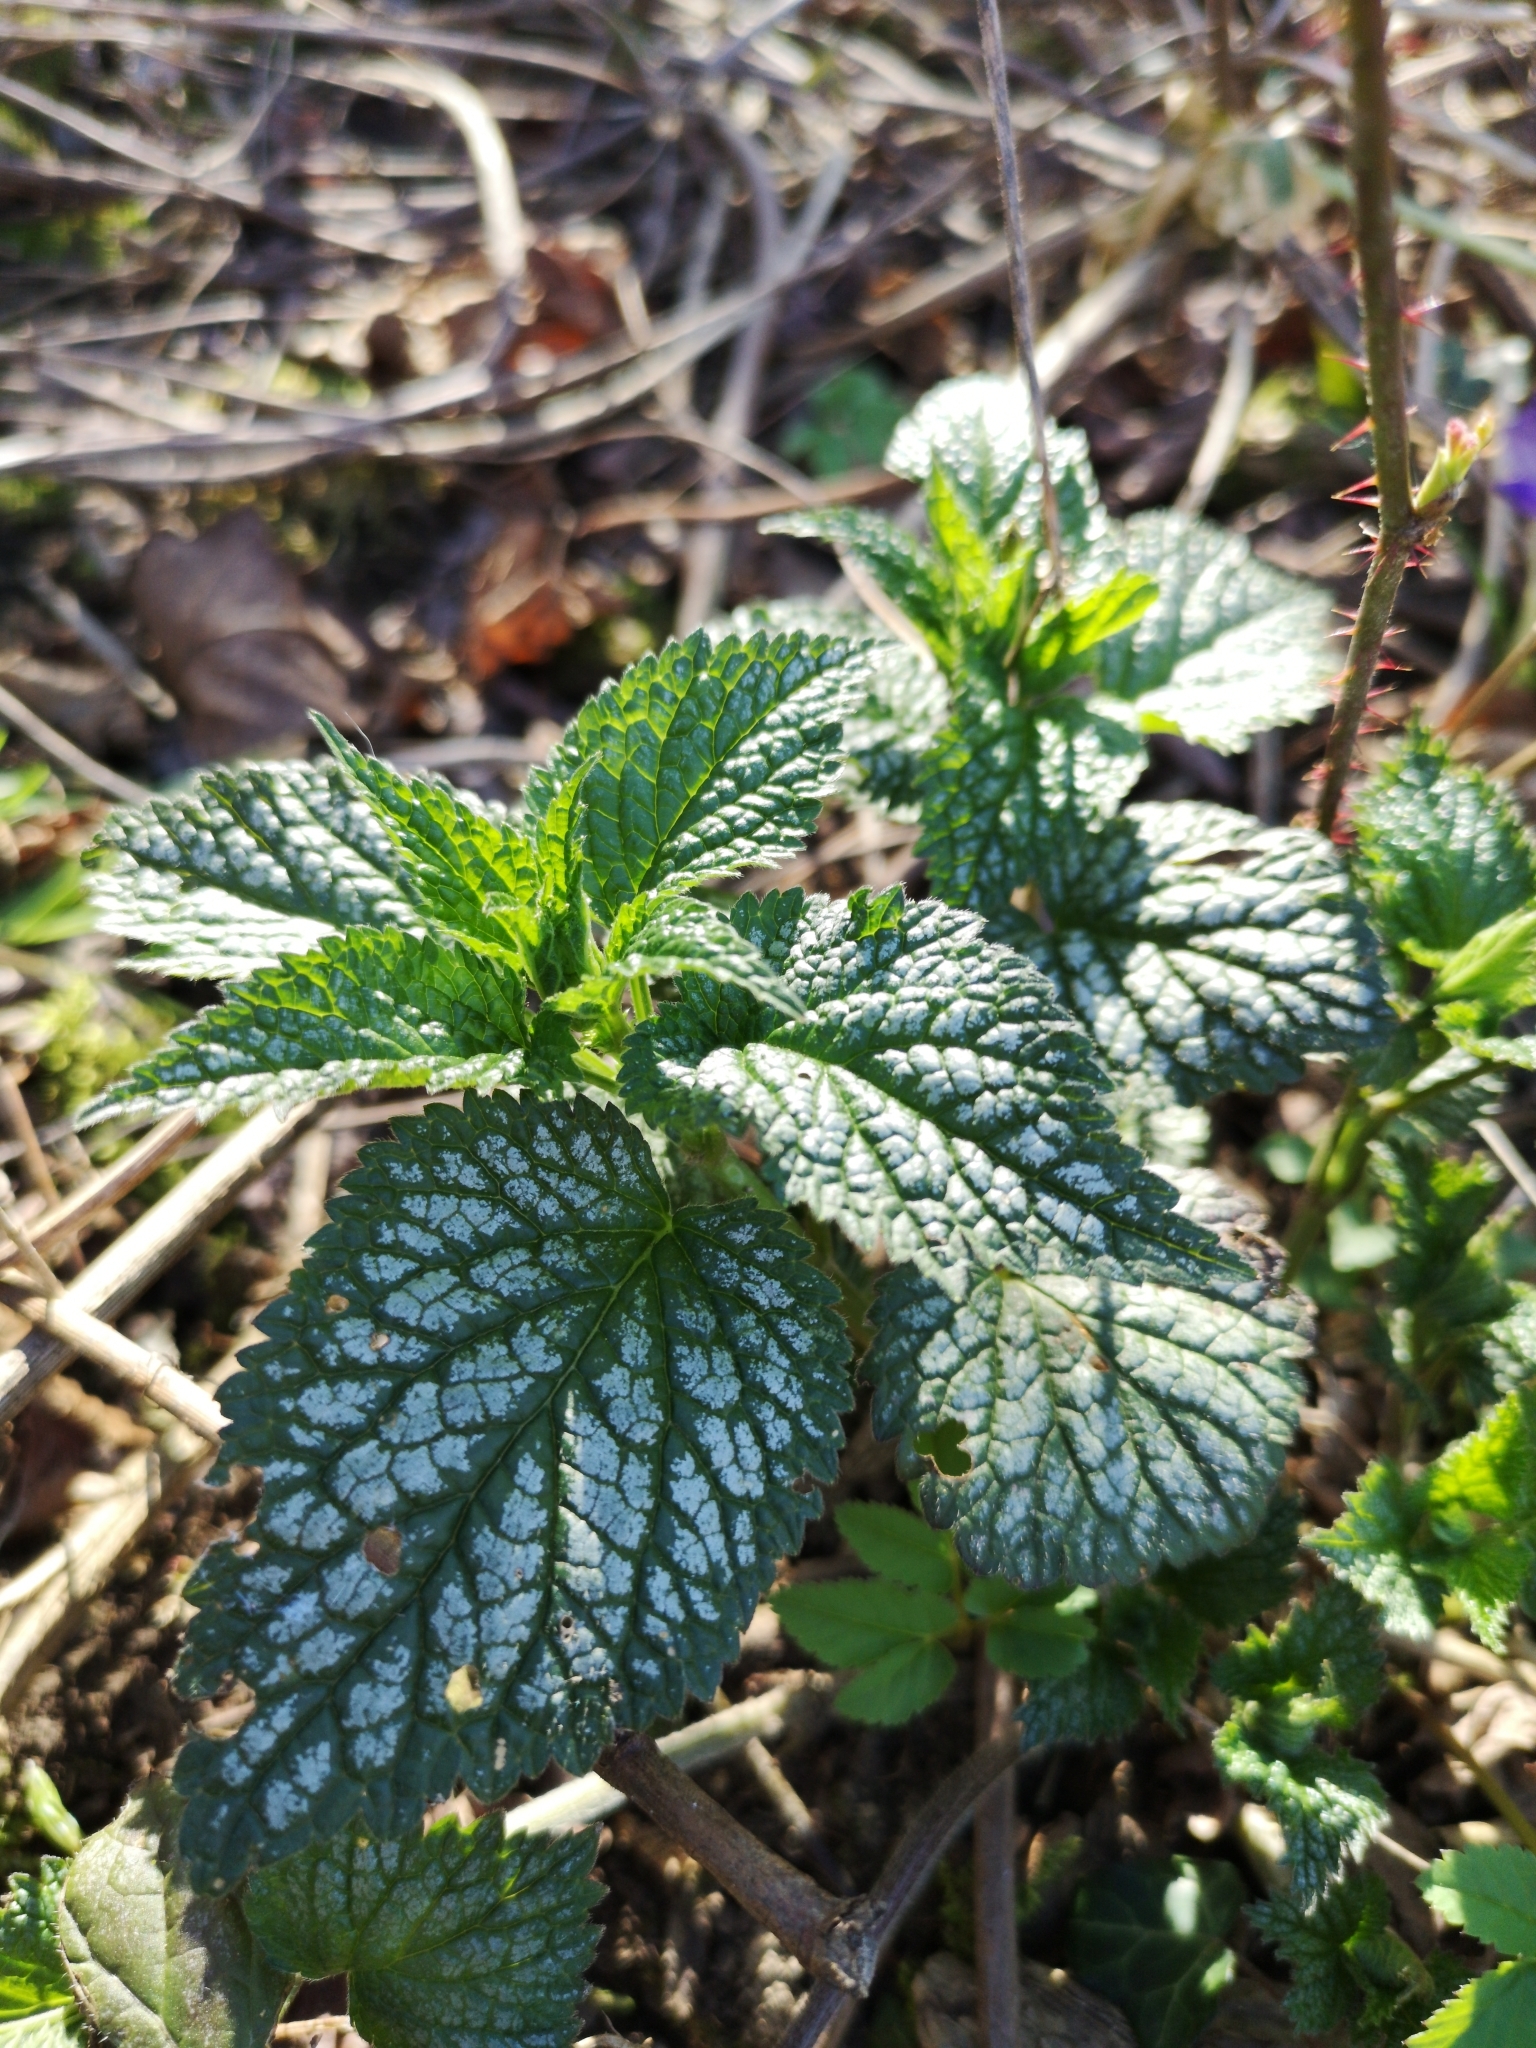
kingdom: Plantae
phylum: Tracheophyta
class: Magnoliopsida
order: Lamiales
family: Lamiaceae
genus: Lamium
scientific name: Lamium galeobdolon
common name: Yellow archangel
